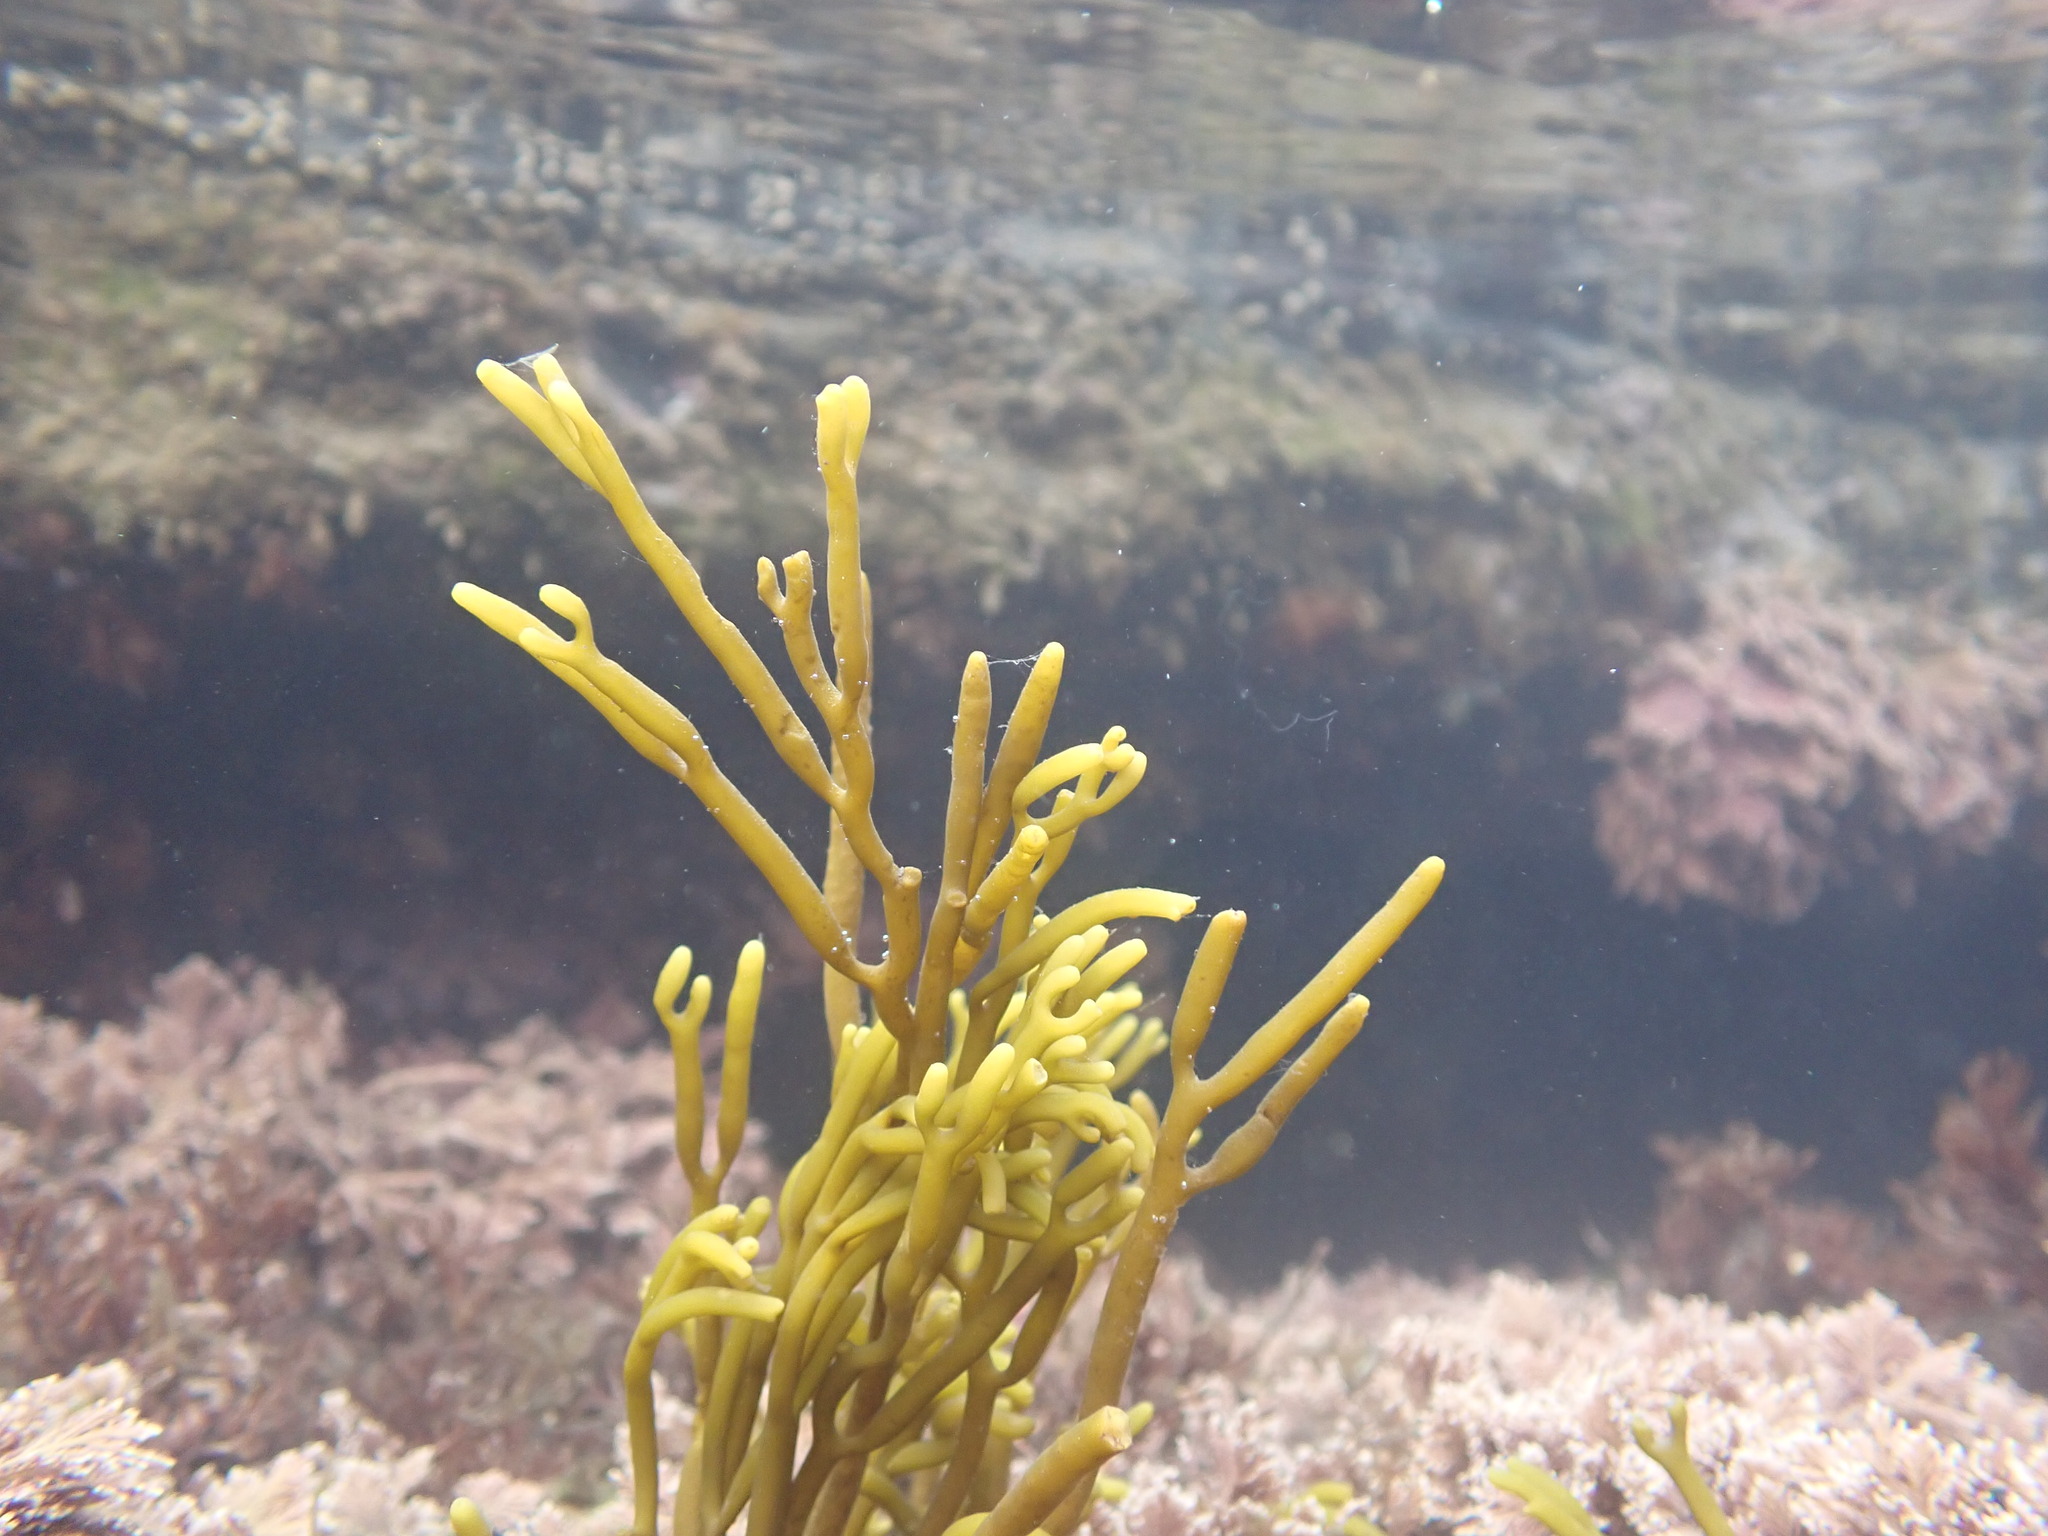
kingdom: Chromista
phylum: Ochrophyta
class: Phaeophyceae
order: Fucales
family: Sargassaceae
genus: Bifurcaria
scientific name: Bifurcaria bifurcata
